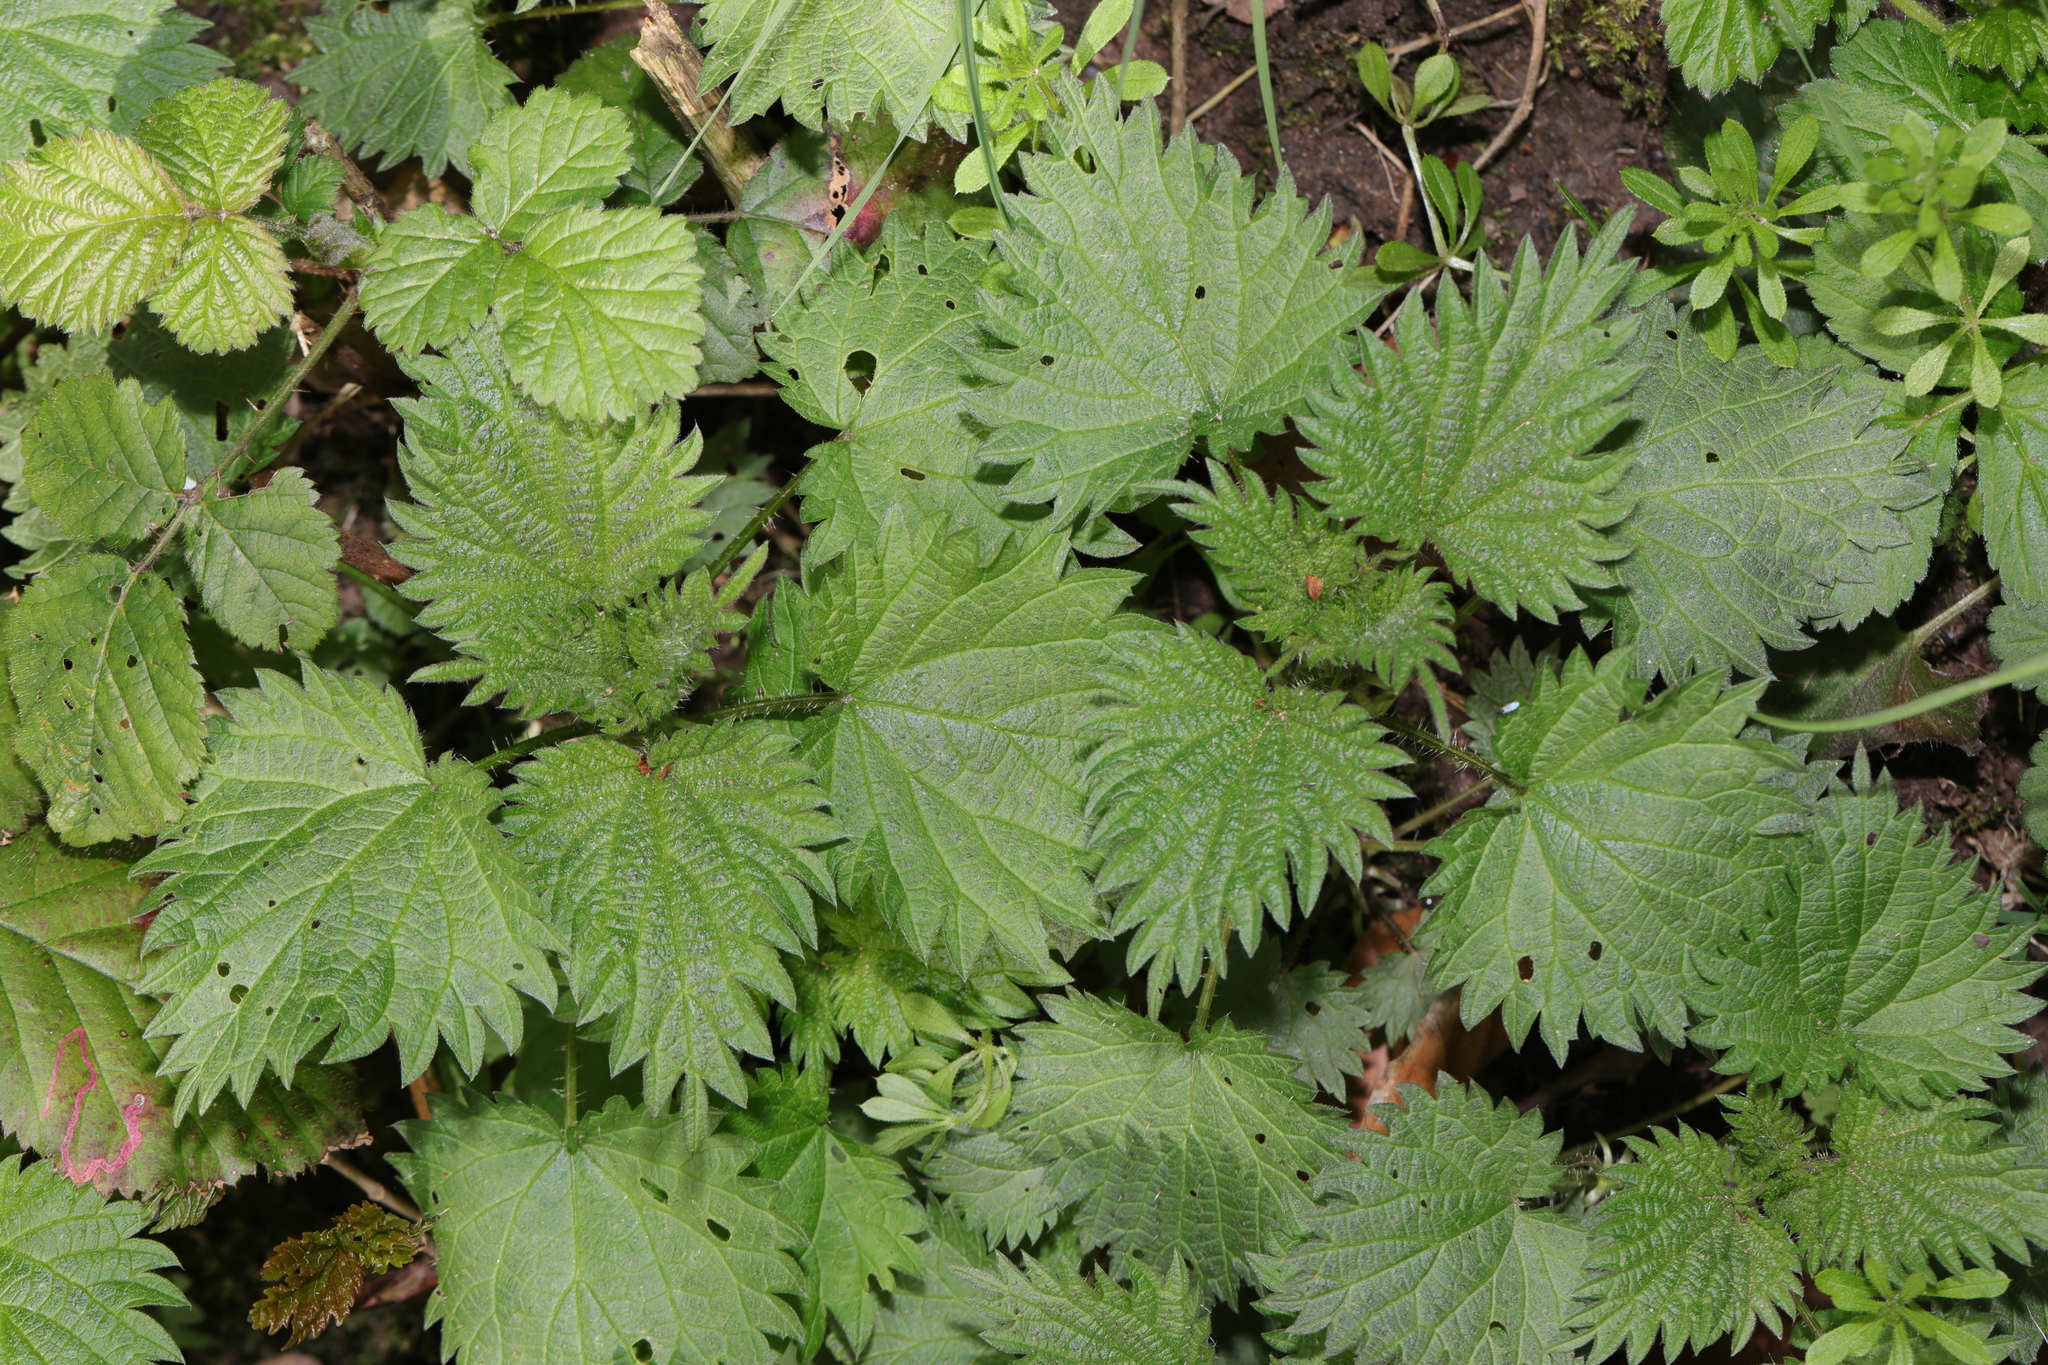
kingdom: Plantae
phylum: Tracheophyta
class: Magnoliopsida
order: Rosales
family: Urticaceae
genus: Urtica
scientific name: Urtica dioica
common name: Common nettle
